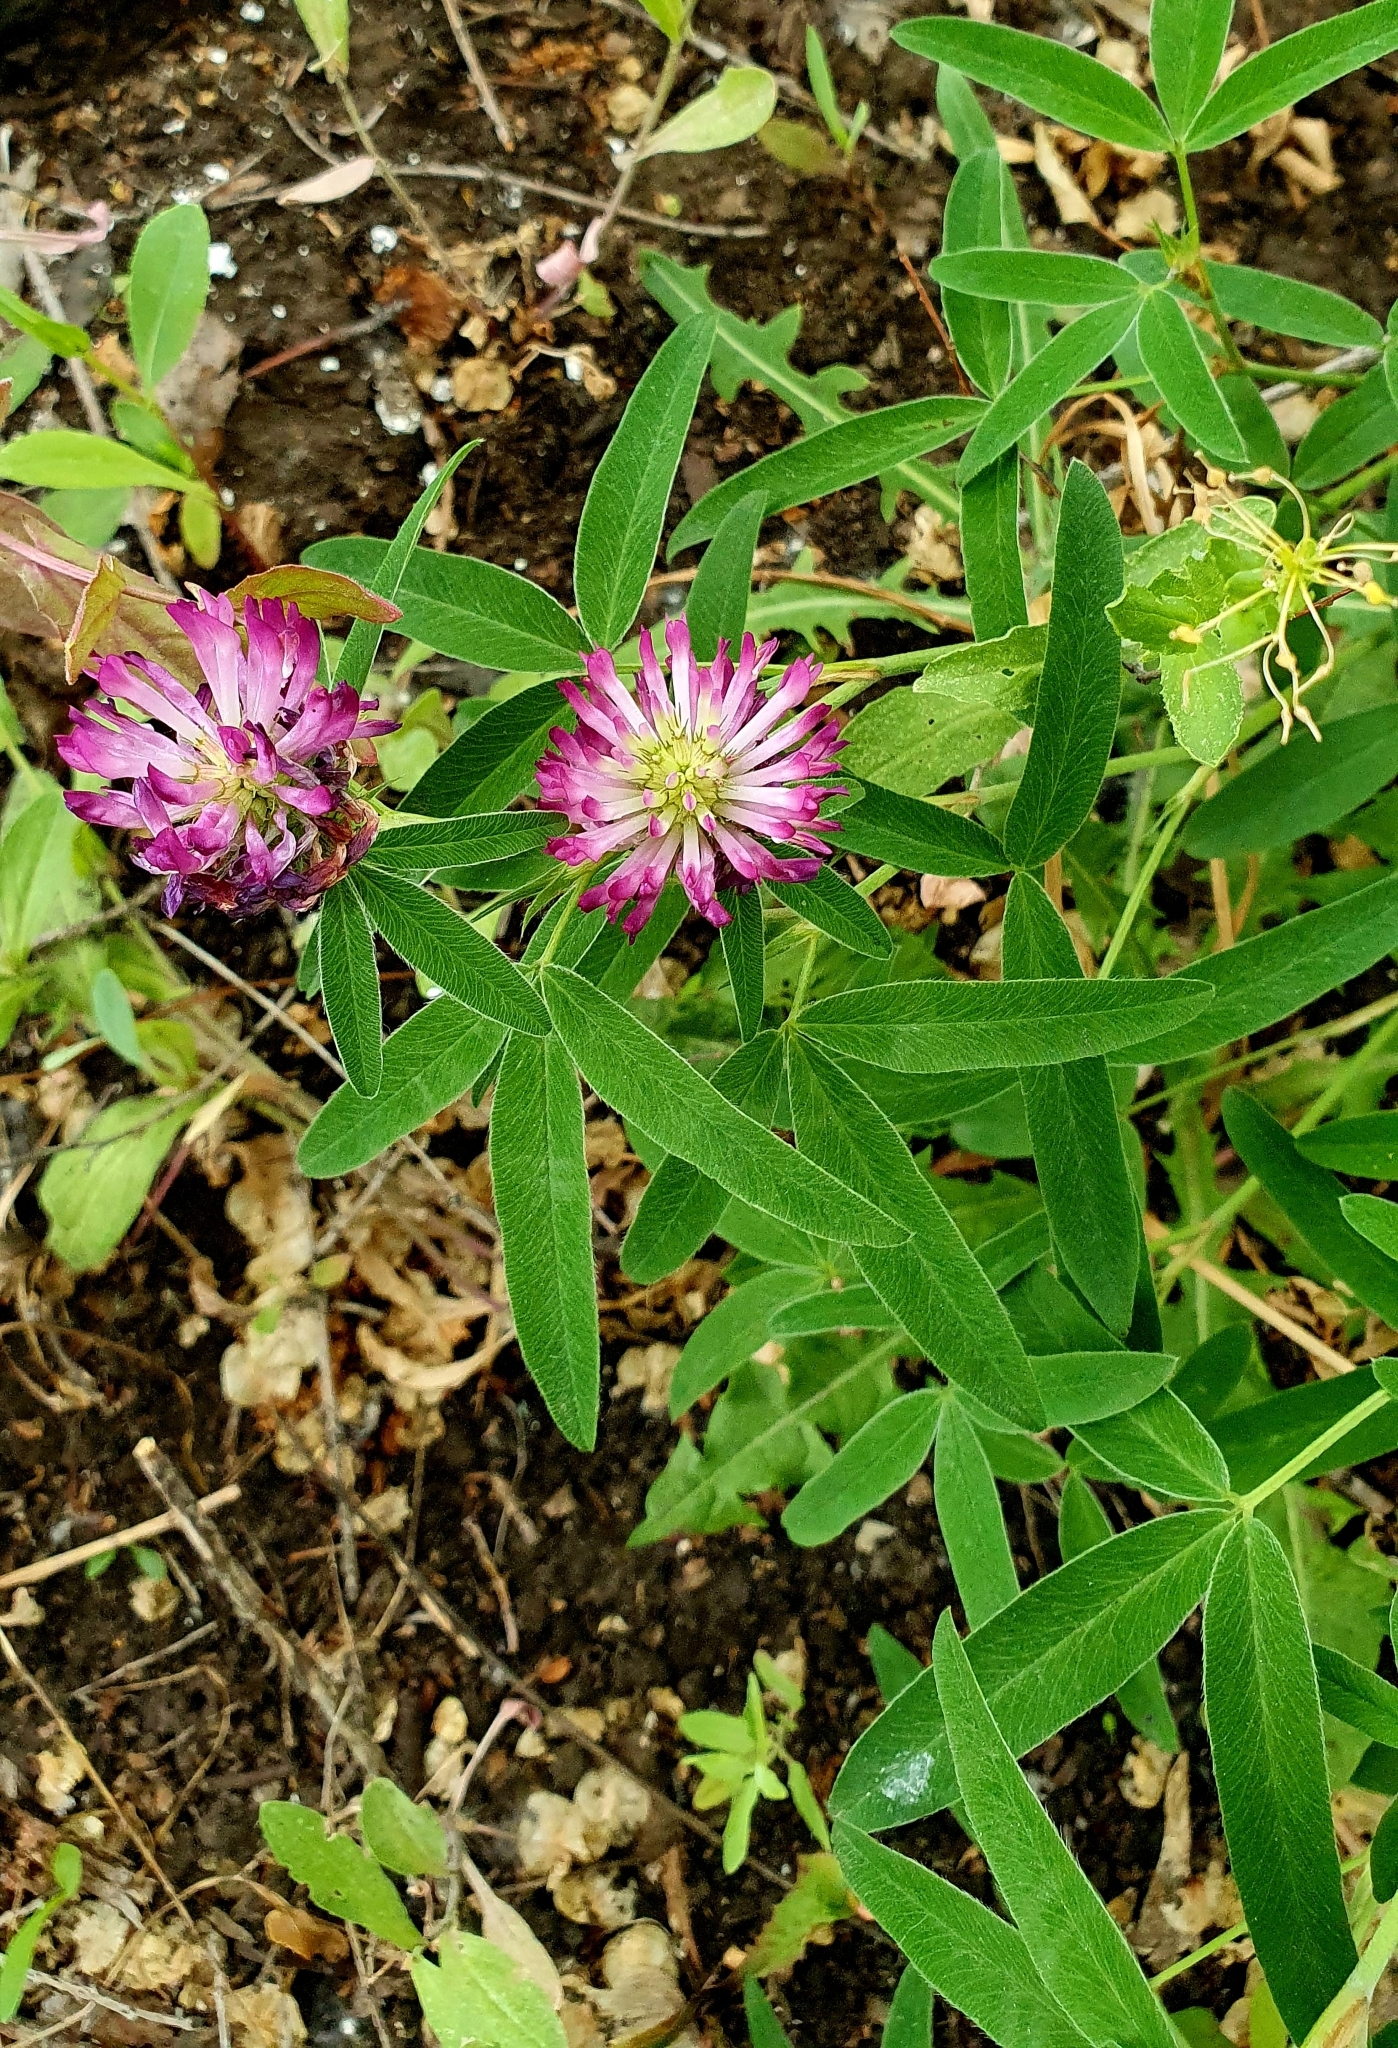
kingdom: Plantae
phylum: Tracheophyta
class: Magnoliopsida
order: Fabales
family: Fabaceae
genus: Trifolium
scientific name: Trifolium medium
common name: Zigzag clover
